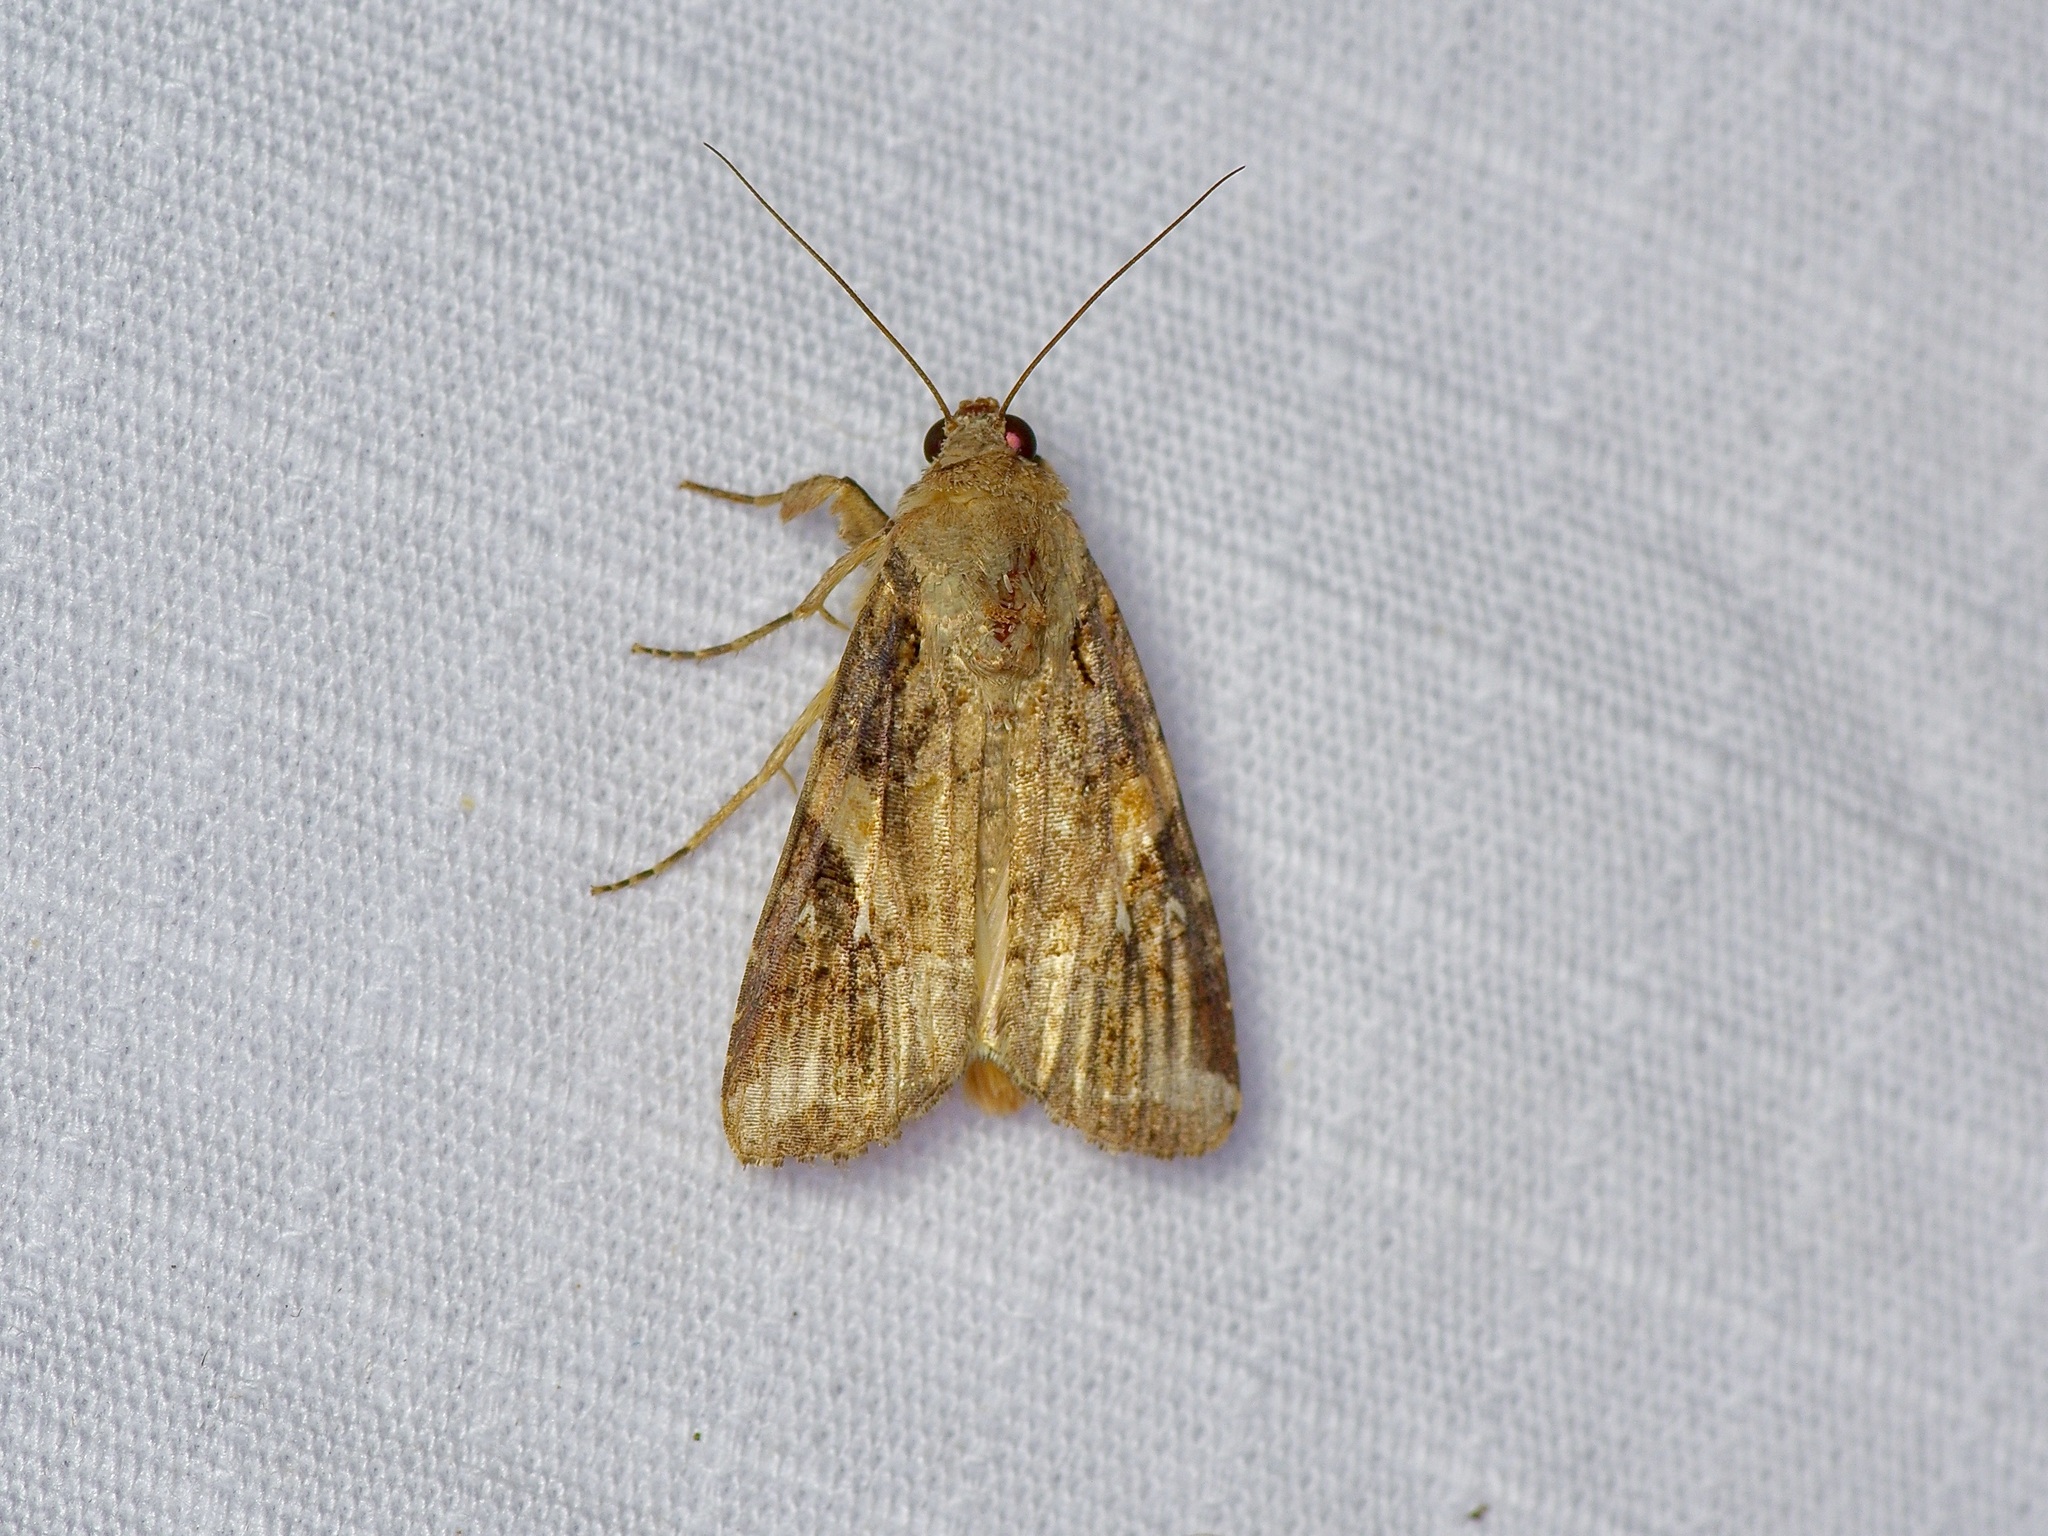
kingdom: Animalia
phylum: Arthropoda
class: Insecta
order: Lepidoptera
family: Noctuidae
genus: Spodoptera
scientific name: Spodoptera frugiperda
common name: Fall armyworm
